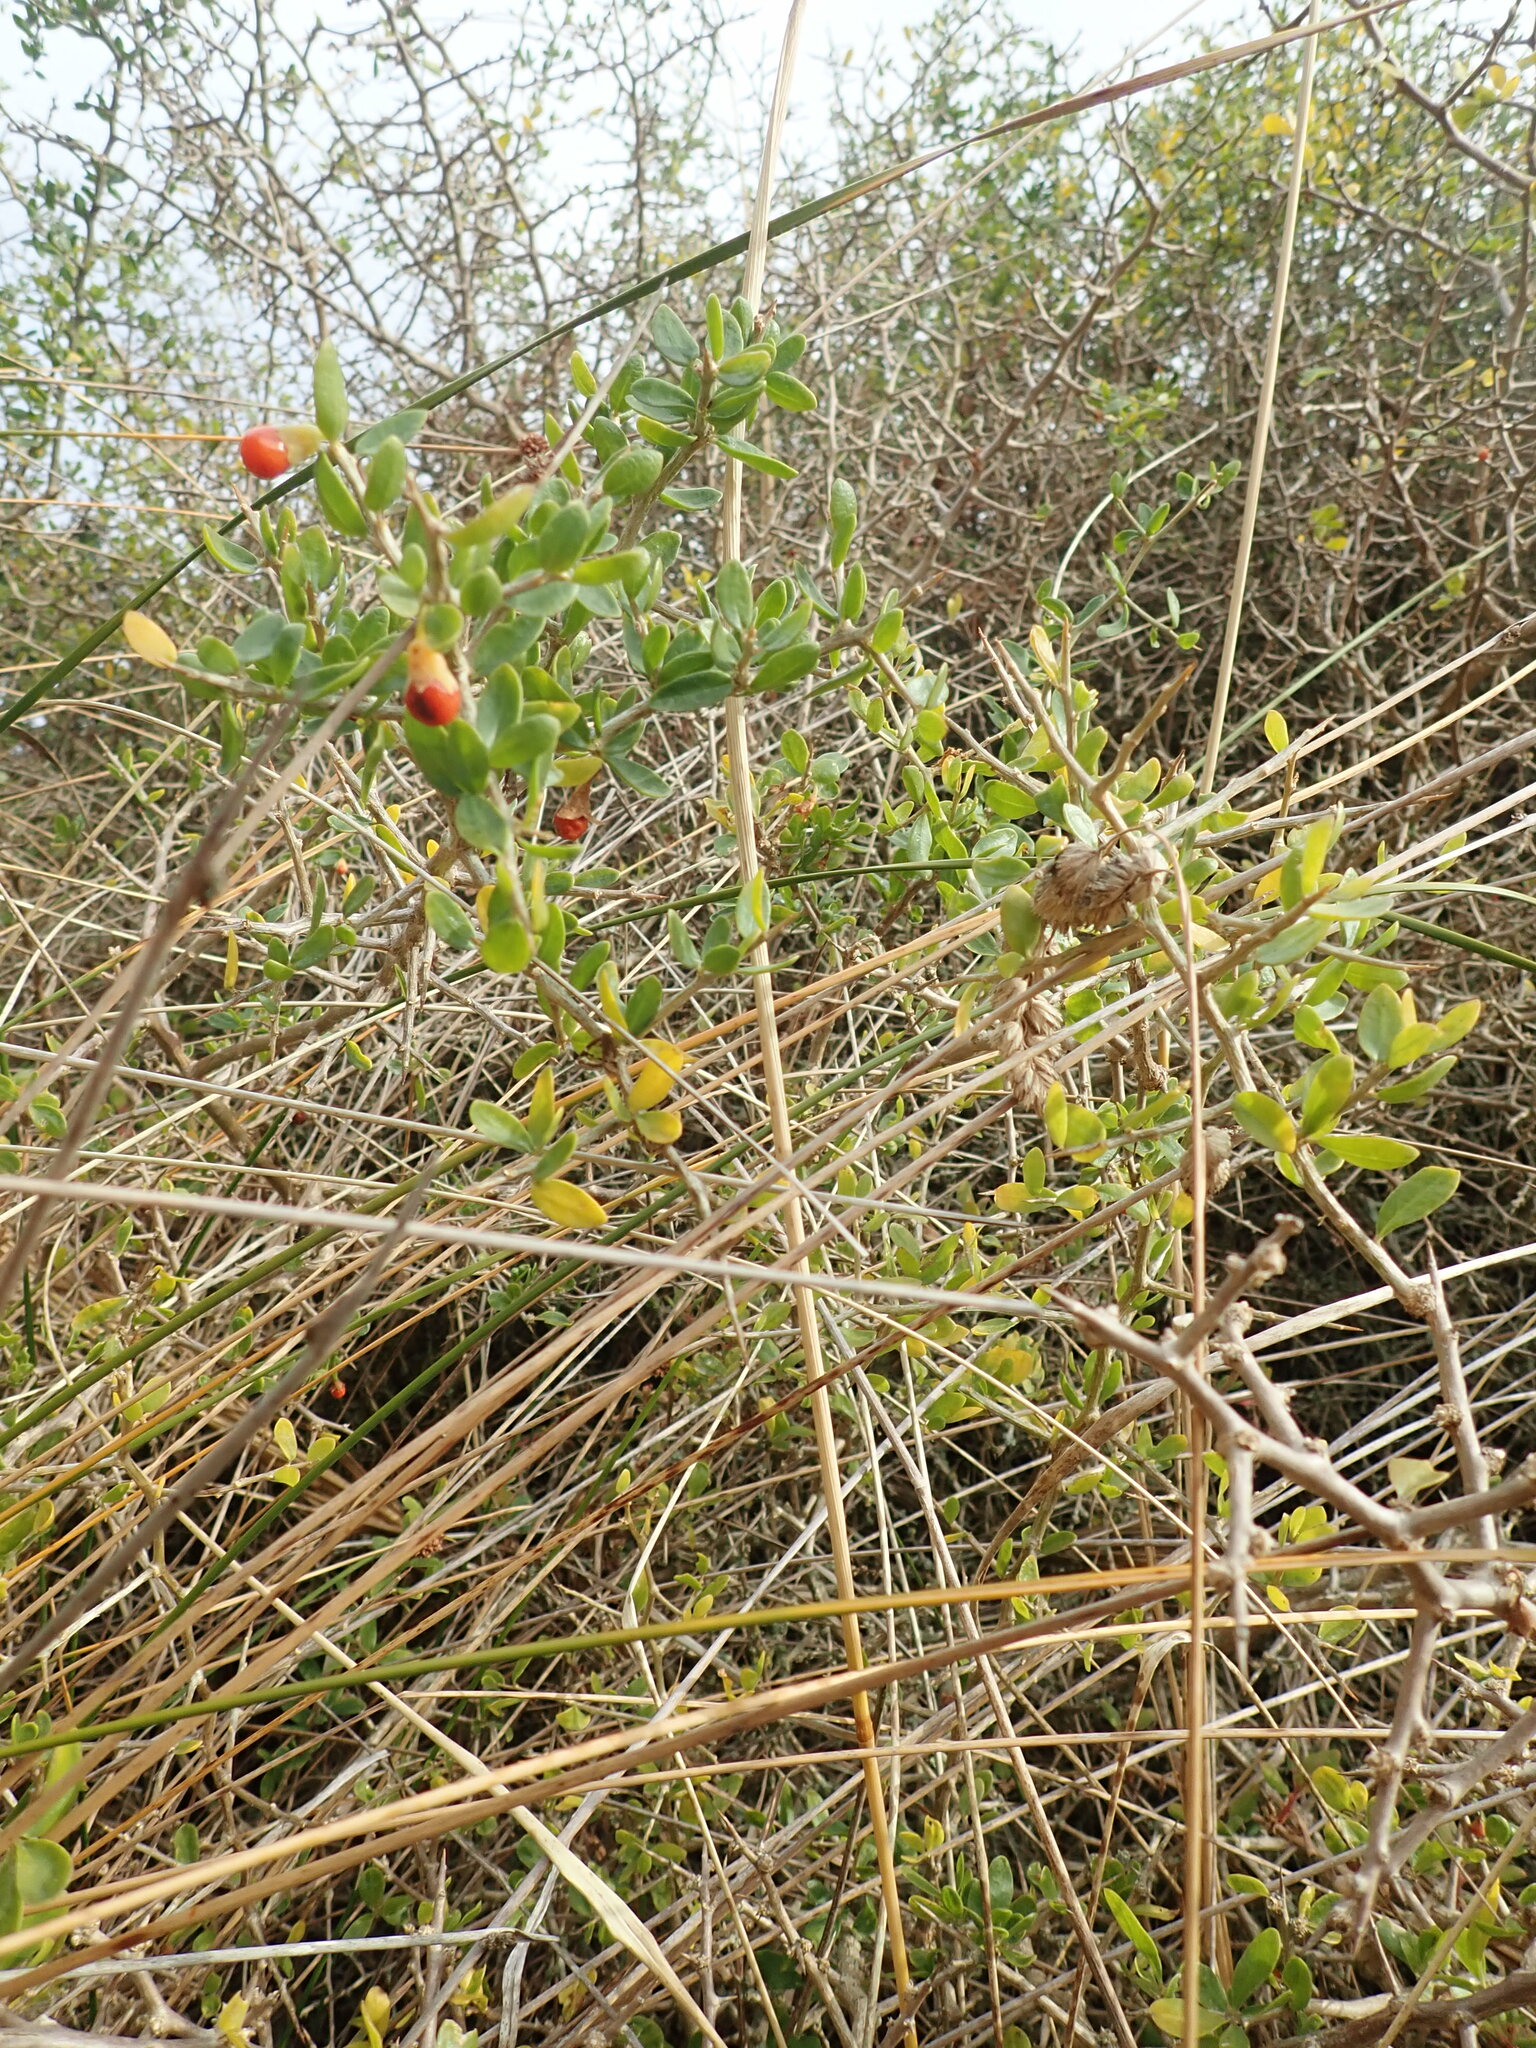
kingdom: Plantae
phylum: Tracheophyta
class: Magnoliopsida
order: Solanales
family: Solanaceae
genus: Lycium
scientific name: Lycium ferocissimum
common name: African boxthorn
